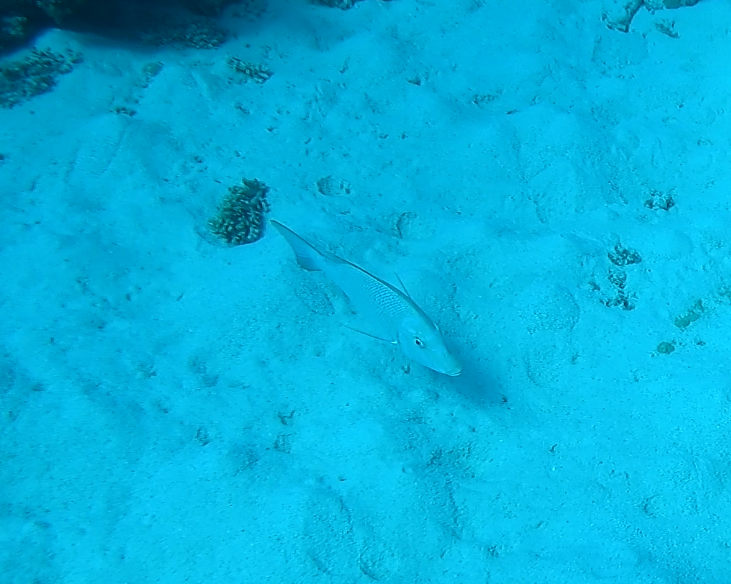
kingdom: Animalia
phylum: Chordata
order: Perciformes
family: Lethrinidae
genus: Lethrinus
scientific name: Lethrinus nebulosus
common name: Spangled emperor
